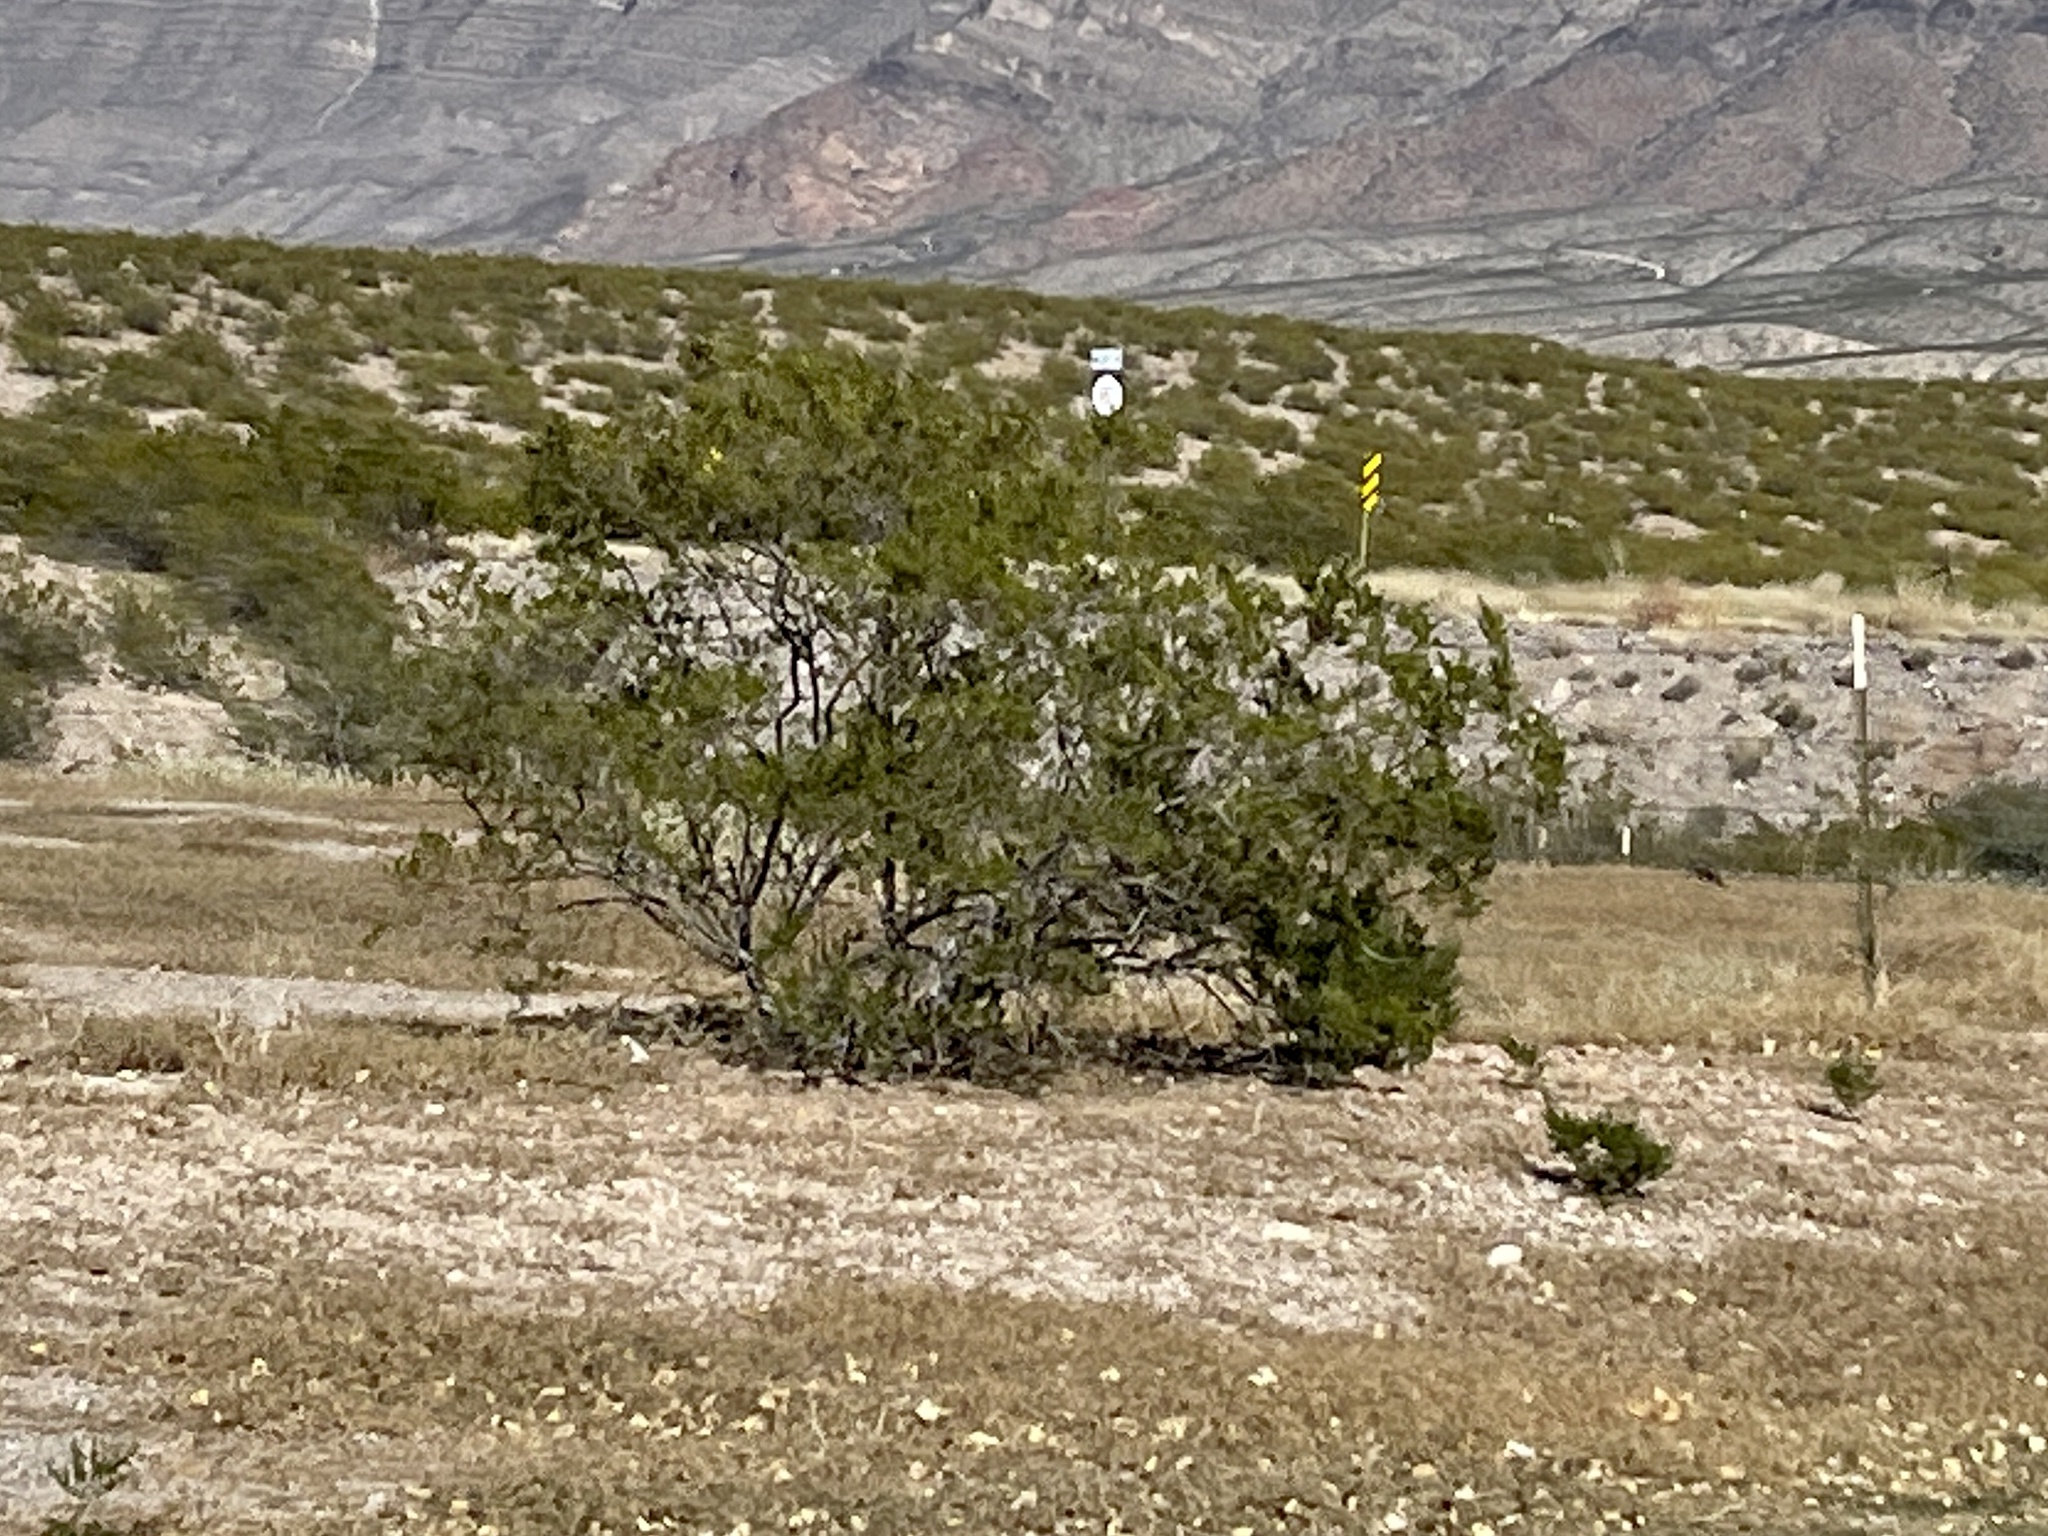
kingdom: Plantae
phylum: Tracheophyta
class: Magnoliopsida
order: Zygophyllales
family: Zygophyllaceae
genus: Larrea
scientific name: Larrea tridentata
